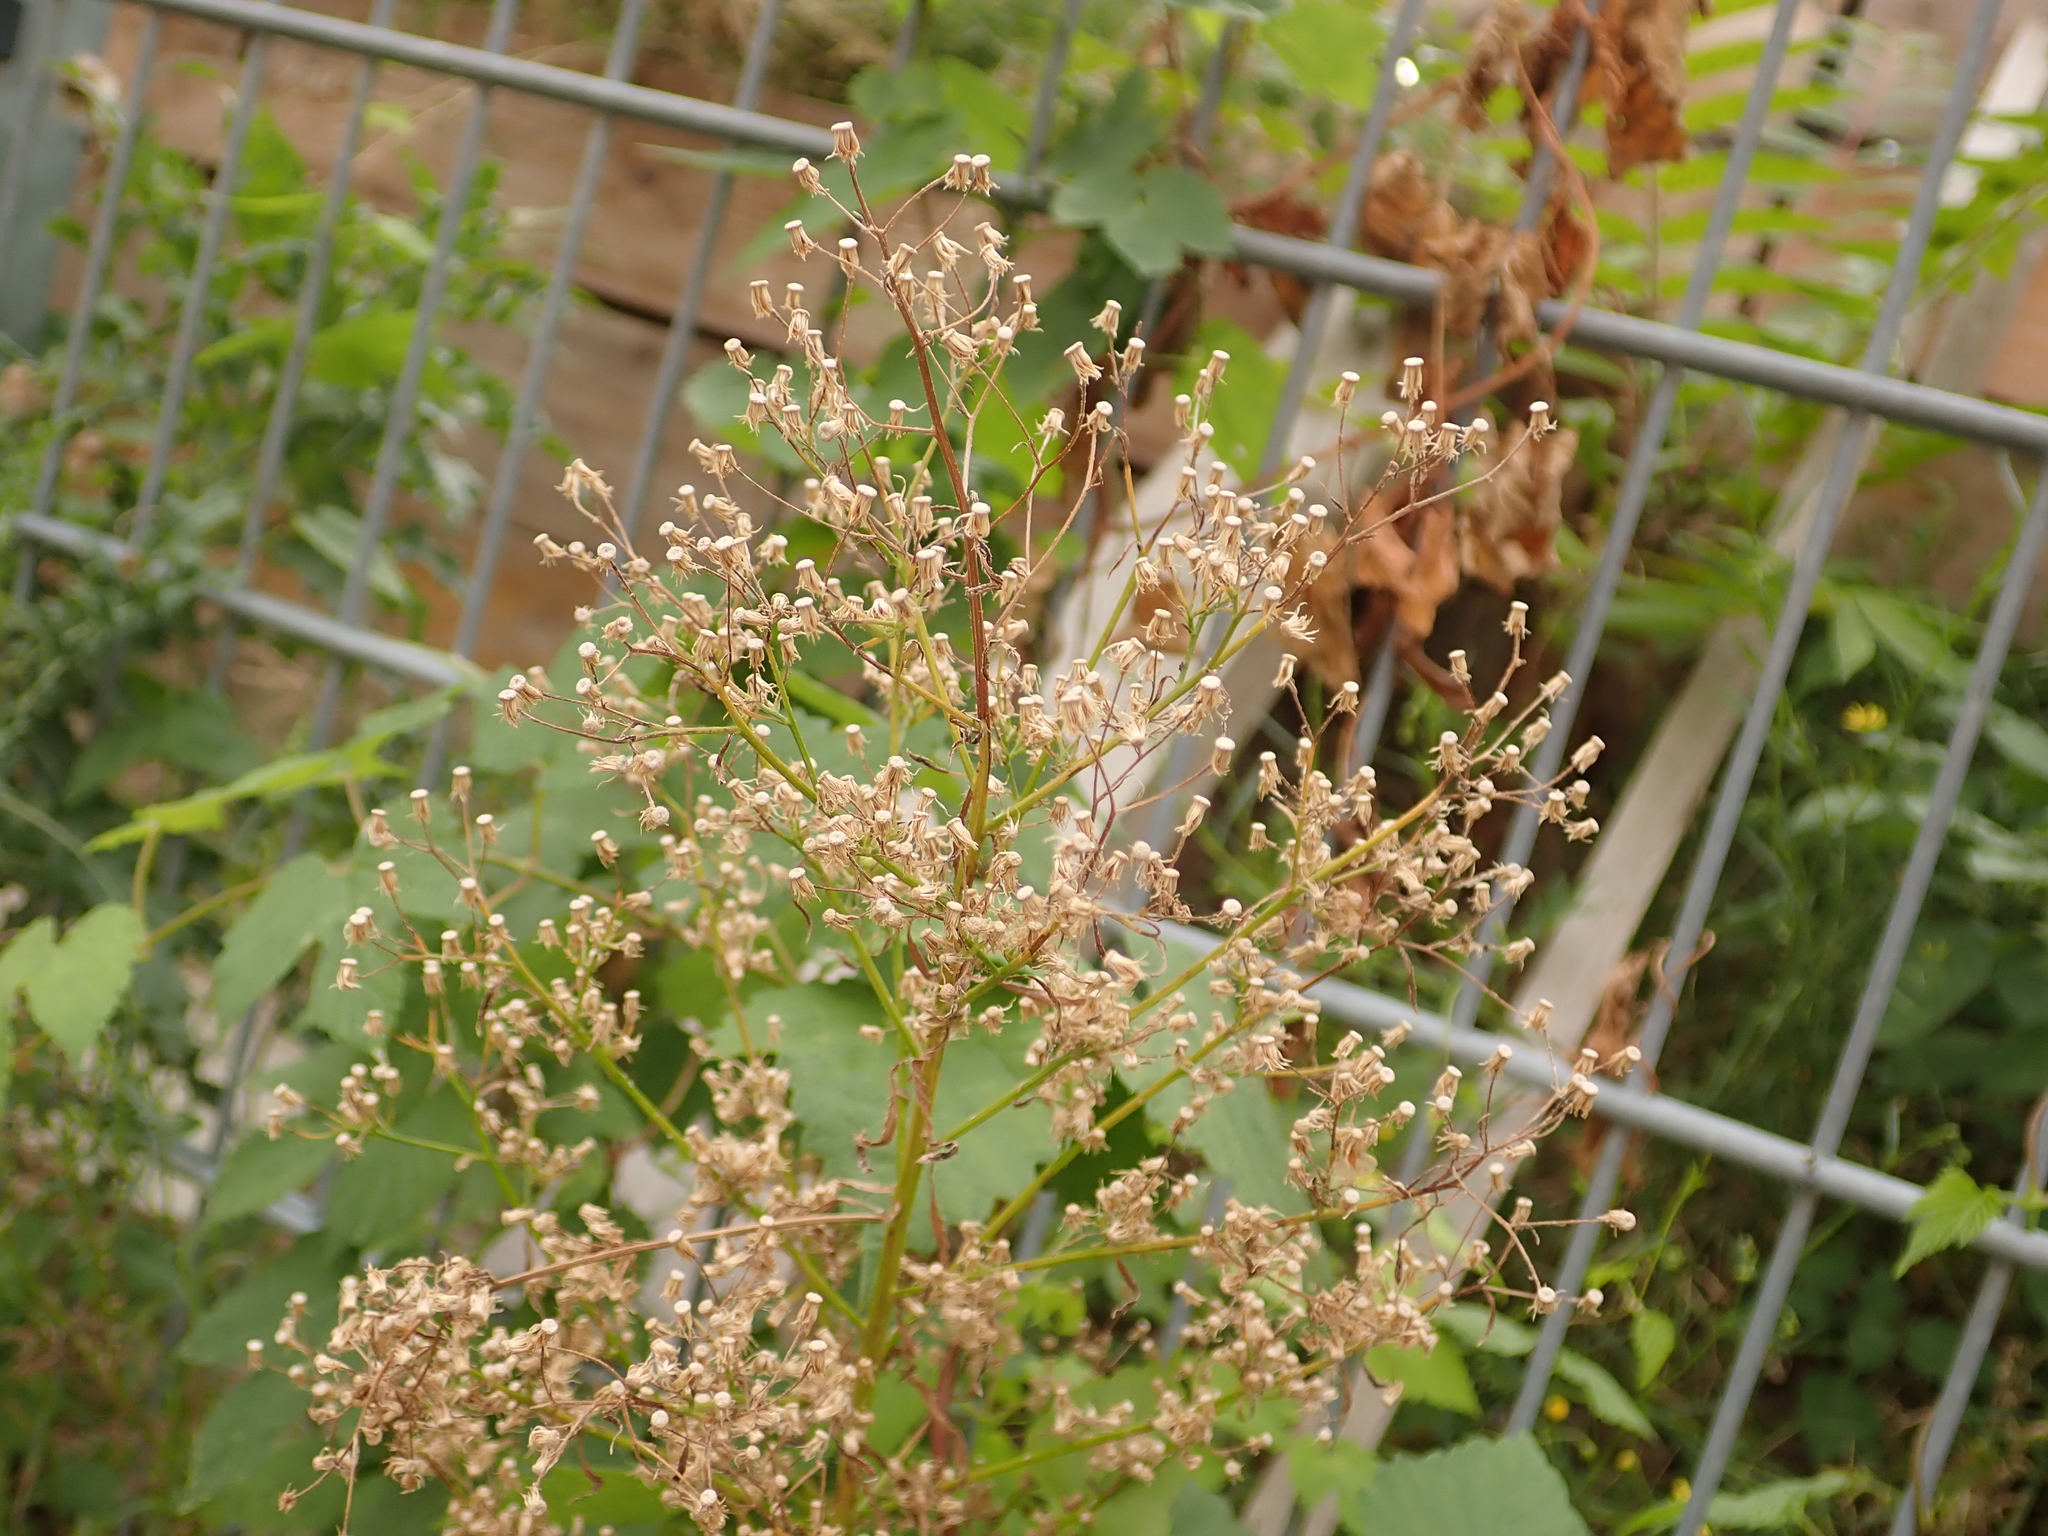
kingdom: Plantae
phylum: Tracheophyta
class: Magnoliopsida
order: Asterales
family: Asteraceae
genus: Erigeron
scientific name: Erigeron canadensis
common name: Canadian fleabane
